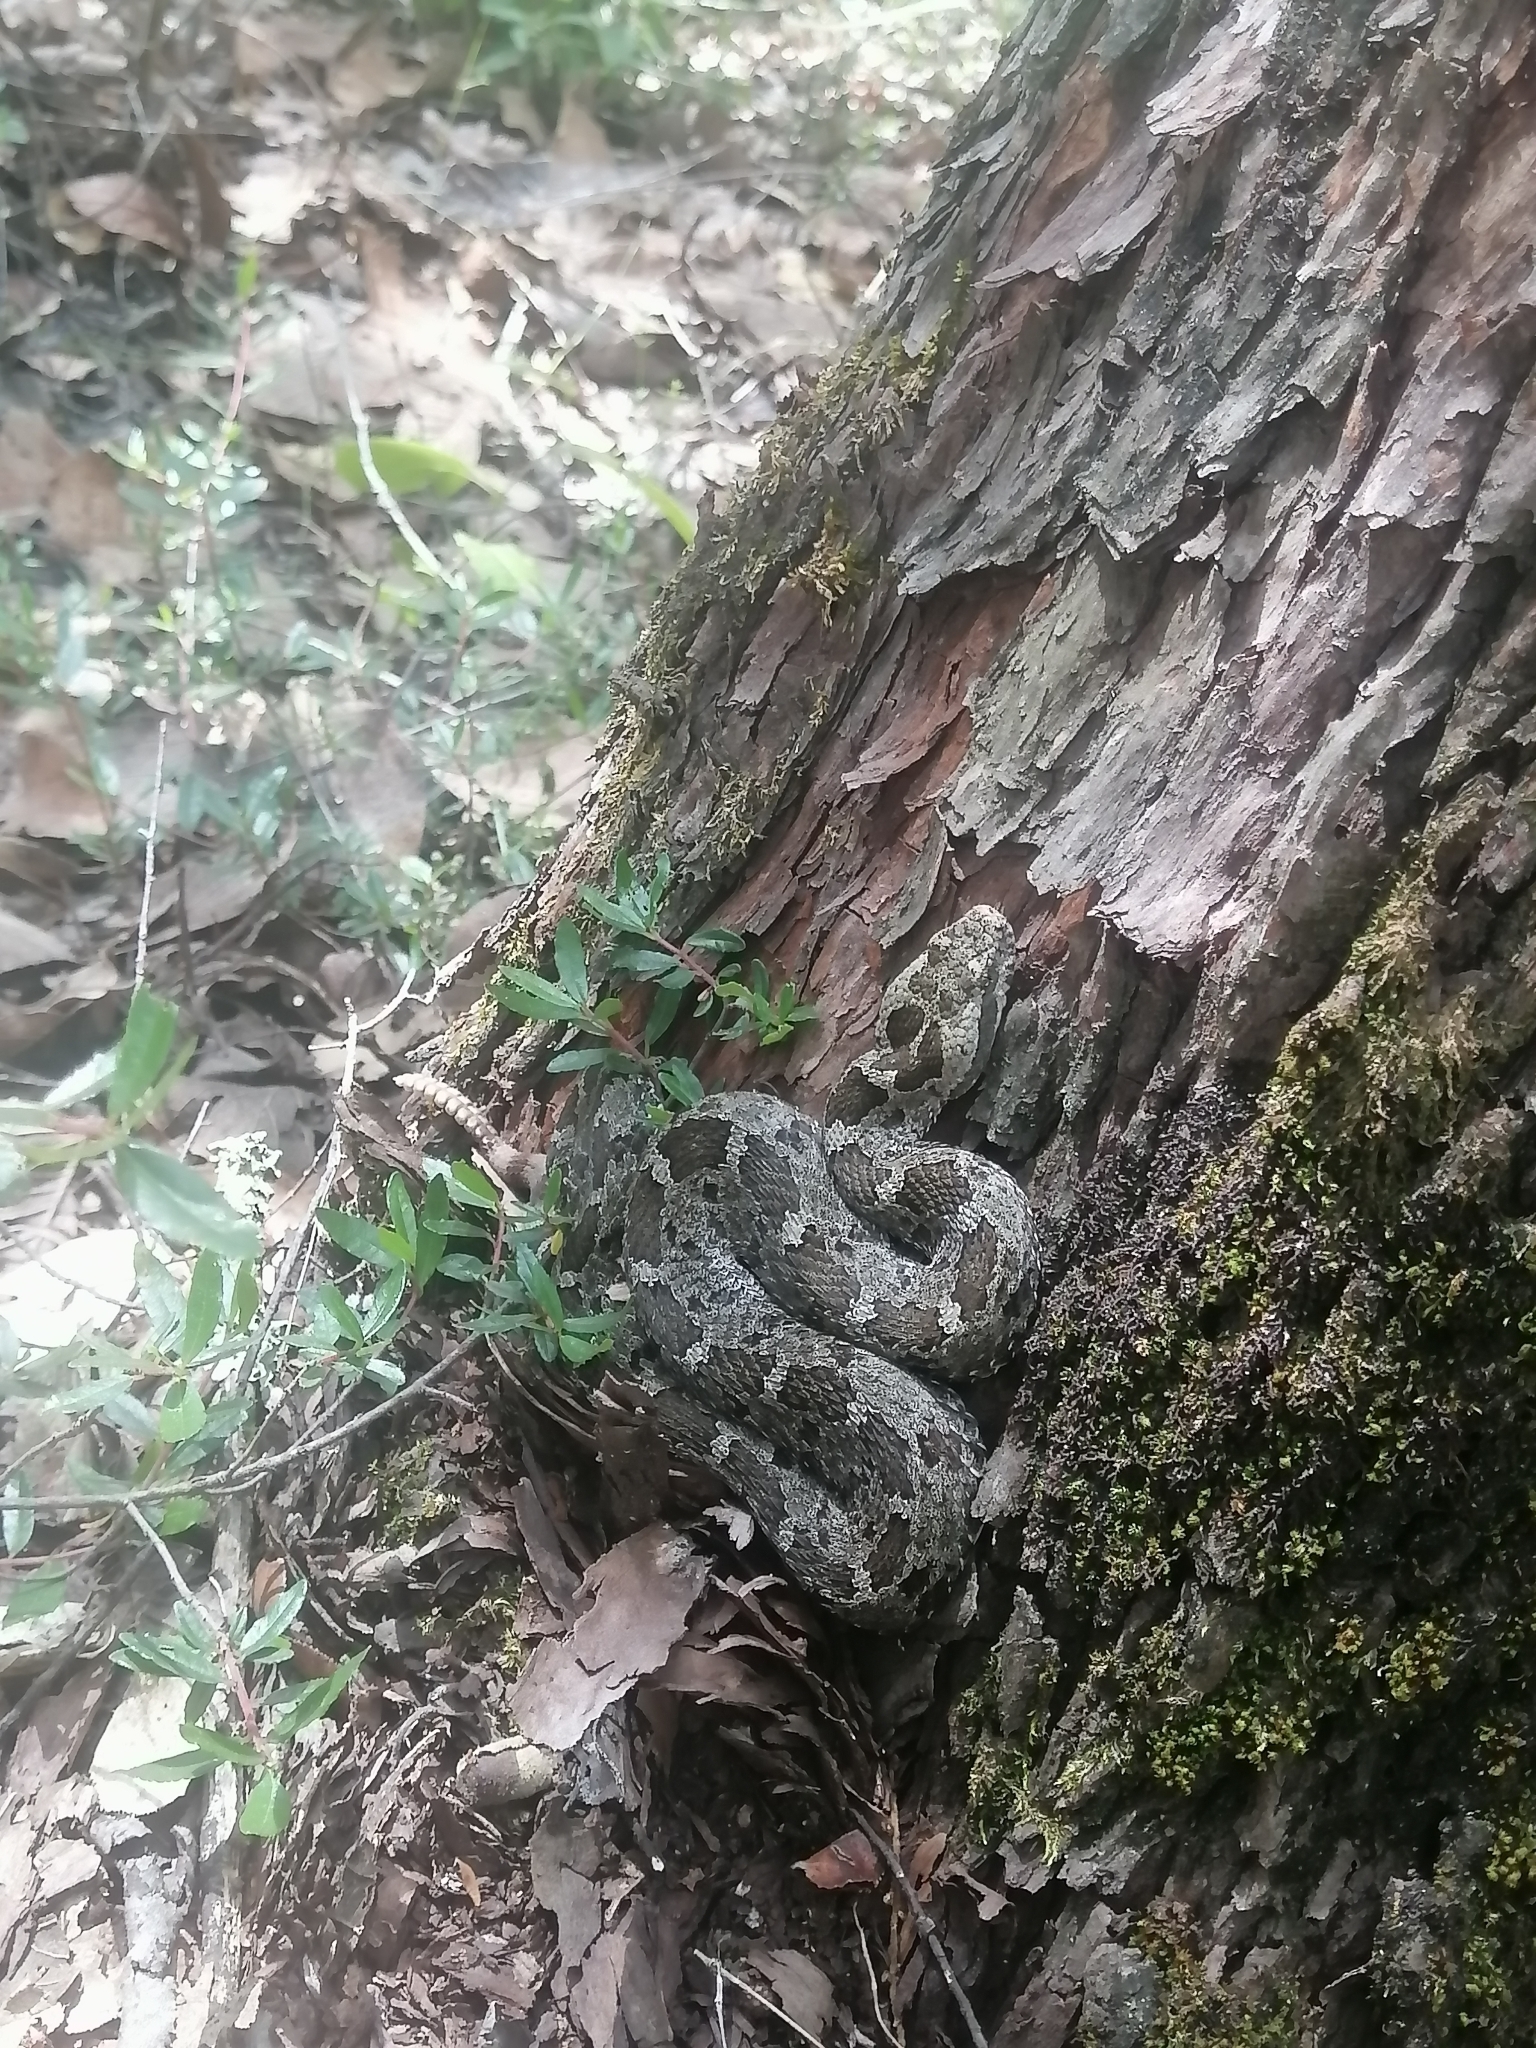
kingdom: Animalia
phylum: Chordata
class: Squamata
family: Viperidae
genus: Crotalus
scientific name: Crotalus aquilus
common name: Queretaran dusky rattlesnake
